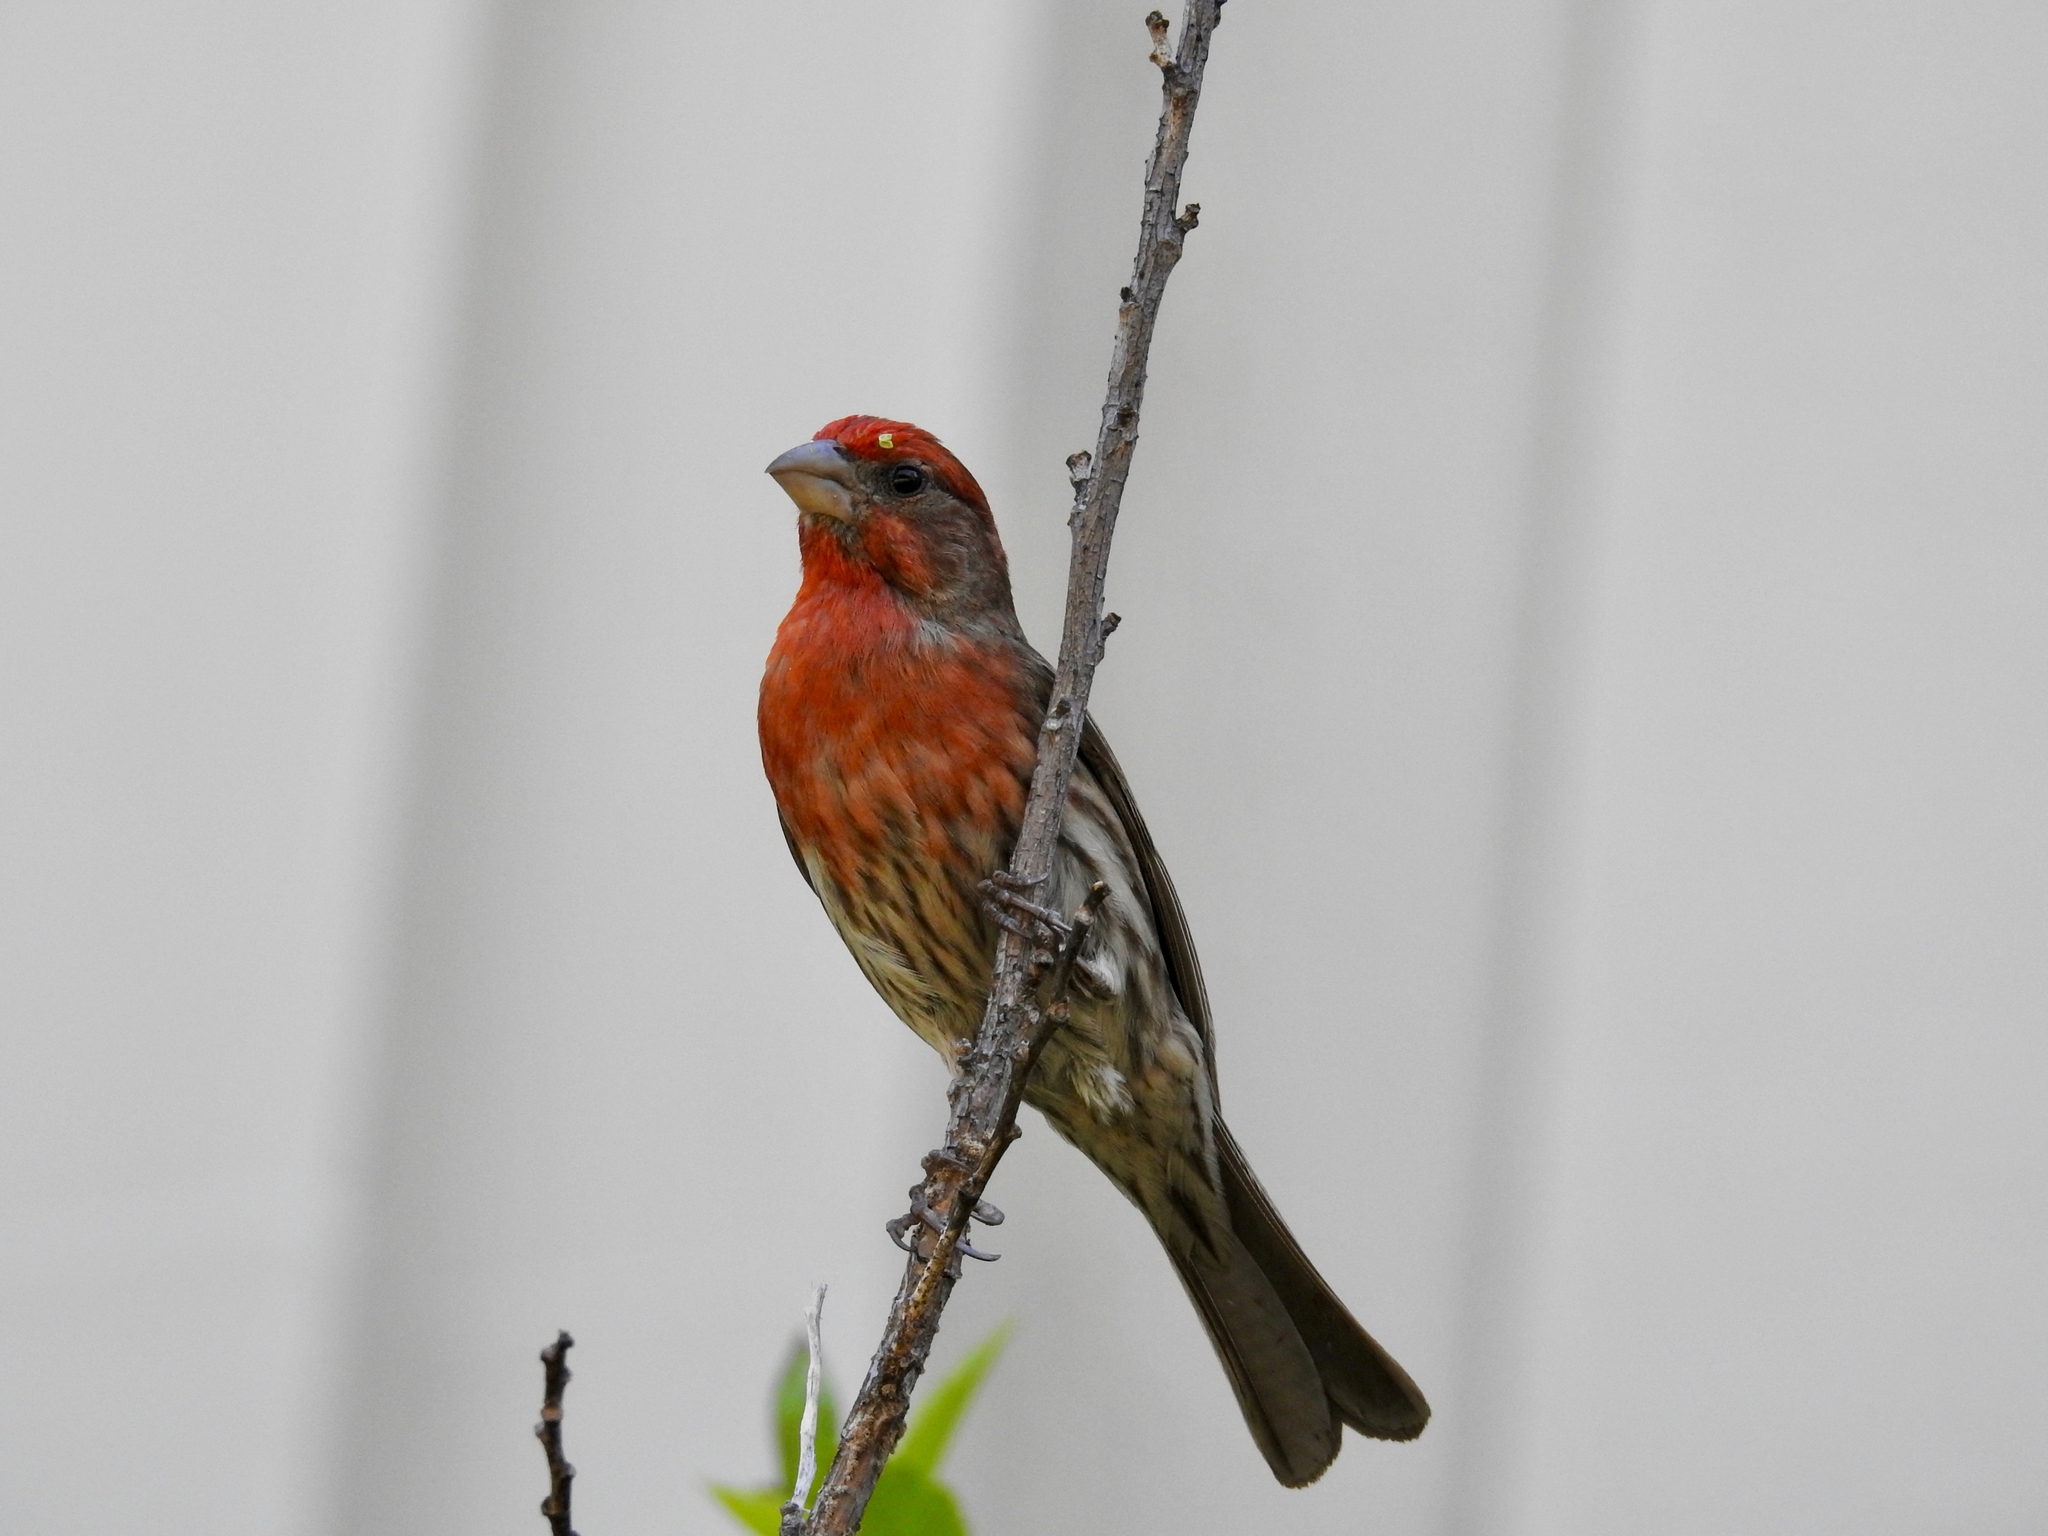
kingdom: Animalia
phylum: Chordata
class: Aves
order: Passeriformes
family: Fringillidae
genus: Haemorhous
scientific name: Haemorhous mexicanus
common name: House finch
